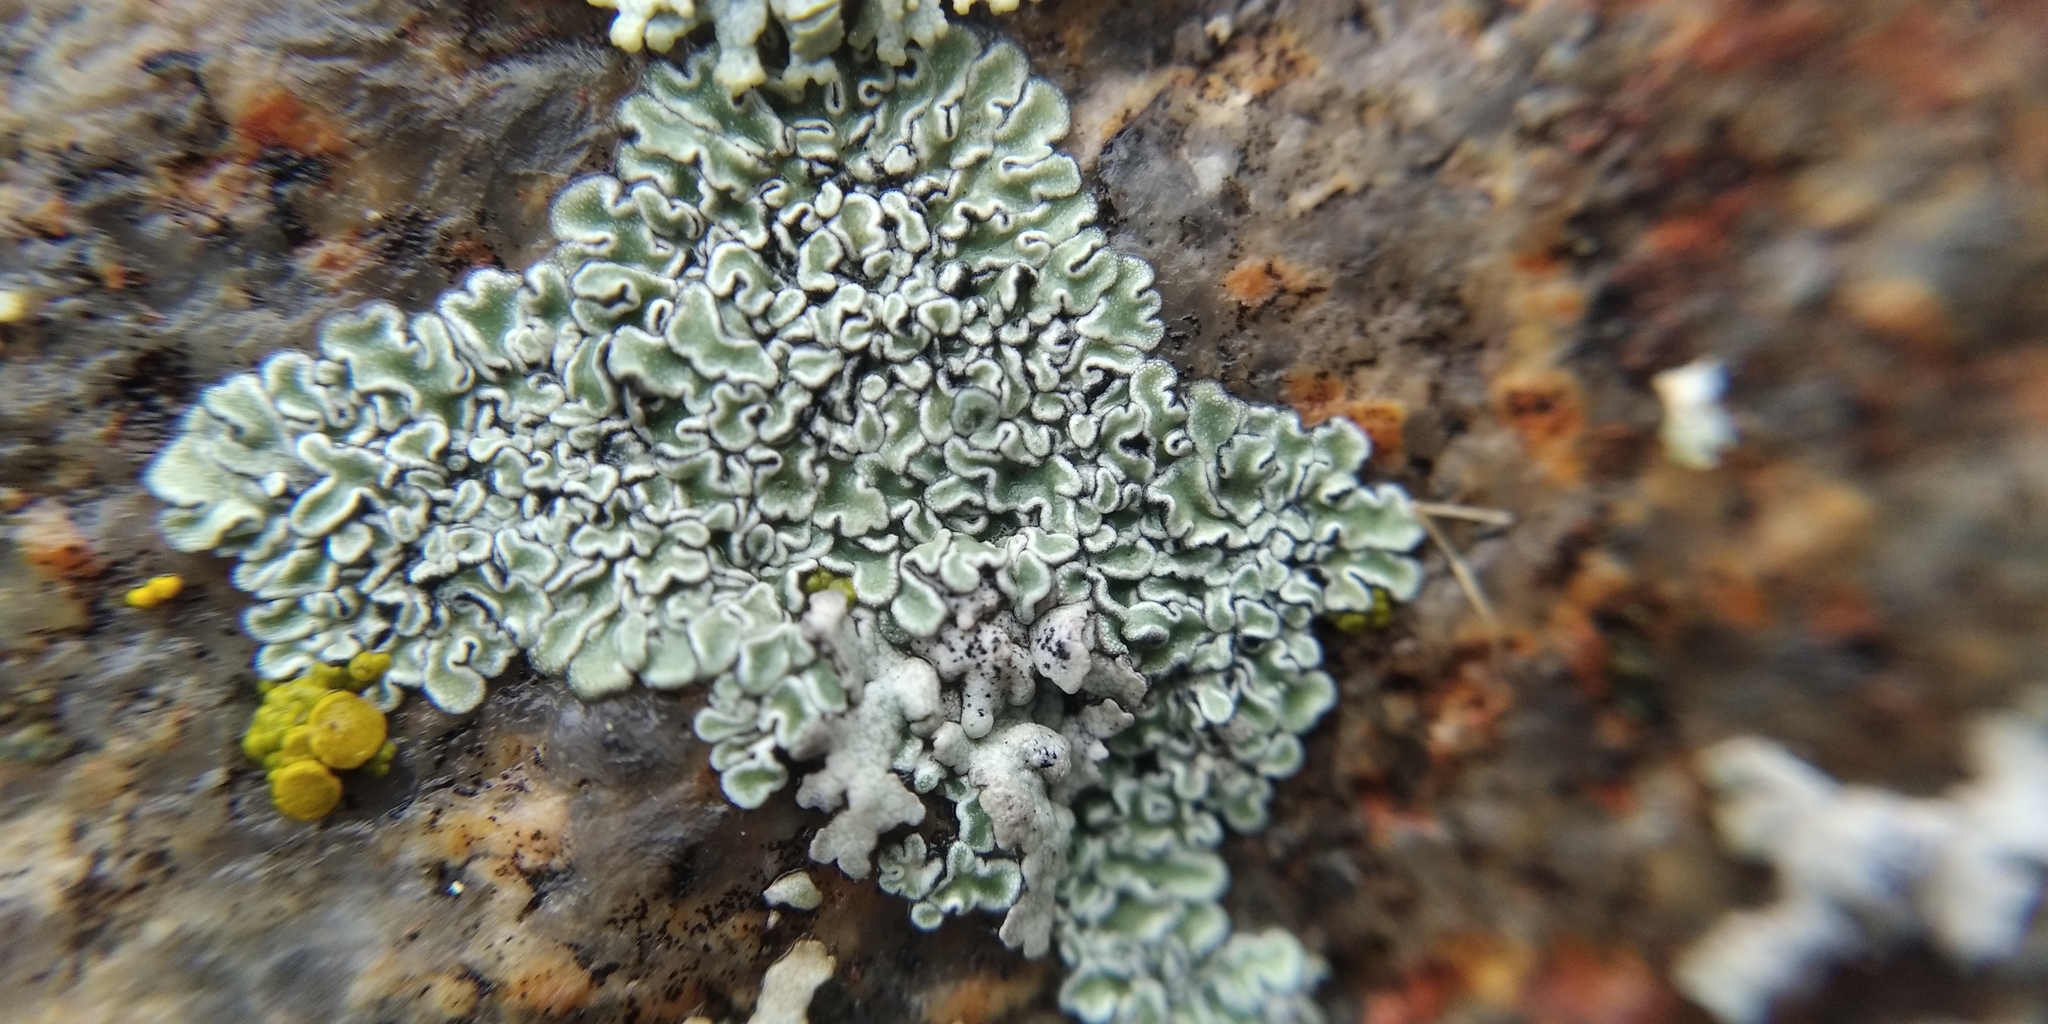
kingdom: Fungi
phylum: Ascomycota
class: Lecanoromycetes
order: Lecanorales
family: Lecanoraceae
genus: Protoparmeliopsis
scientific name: Protoparmeliopsis muralis
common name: Stonewall rim lichen
